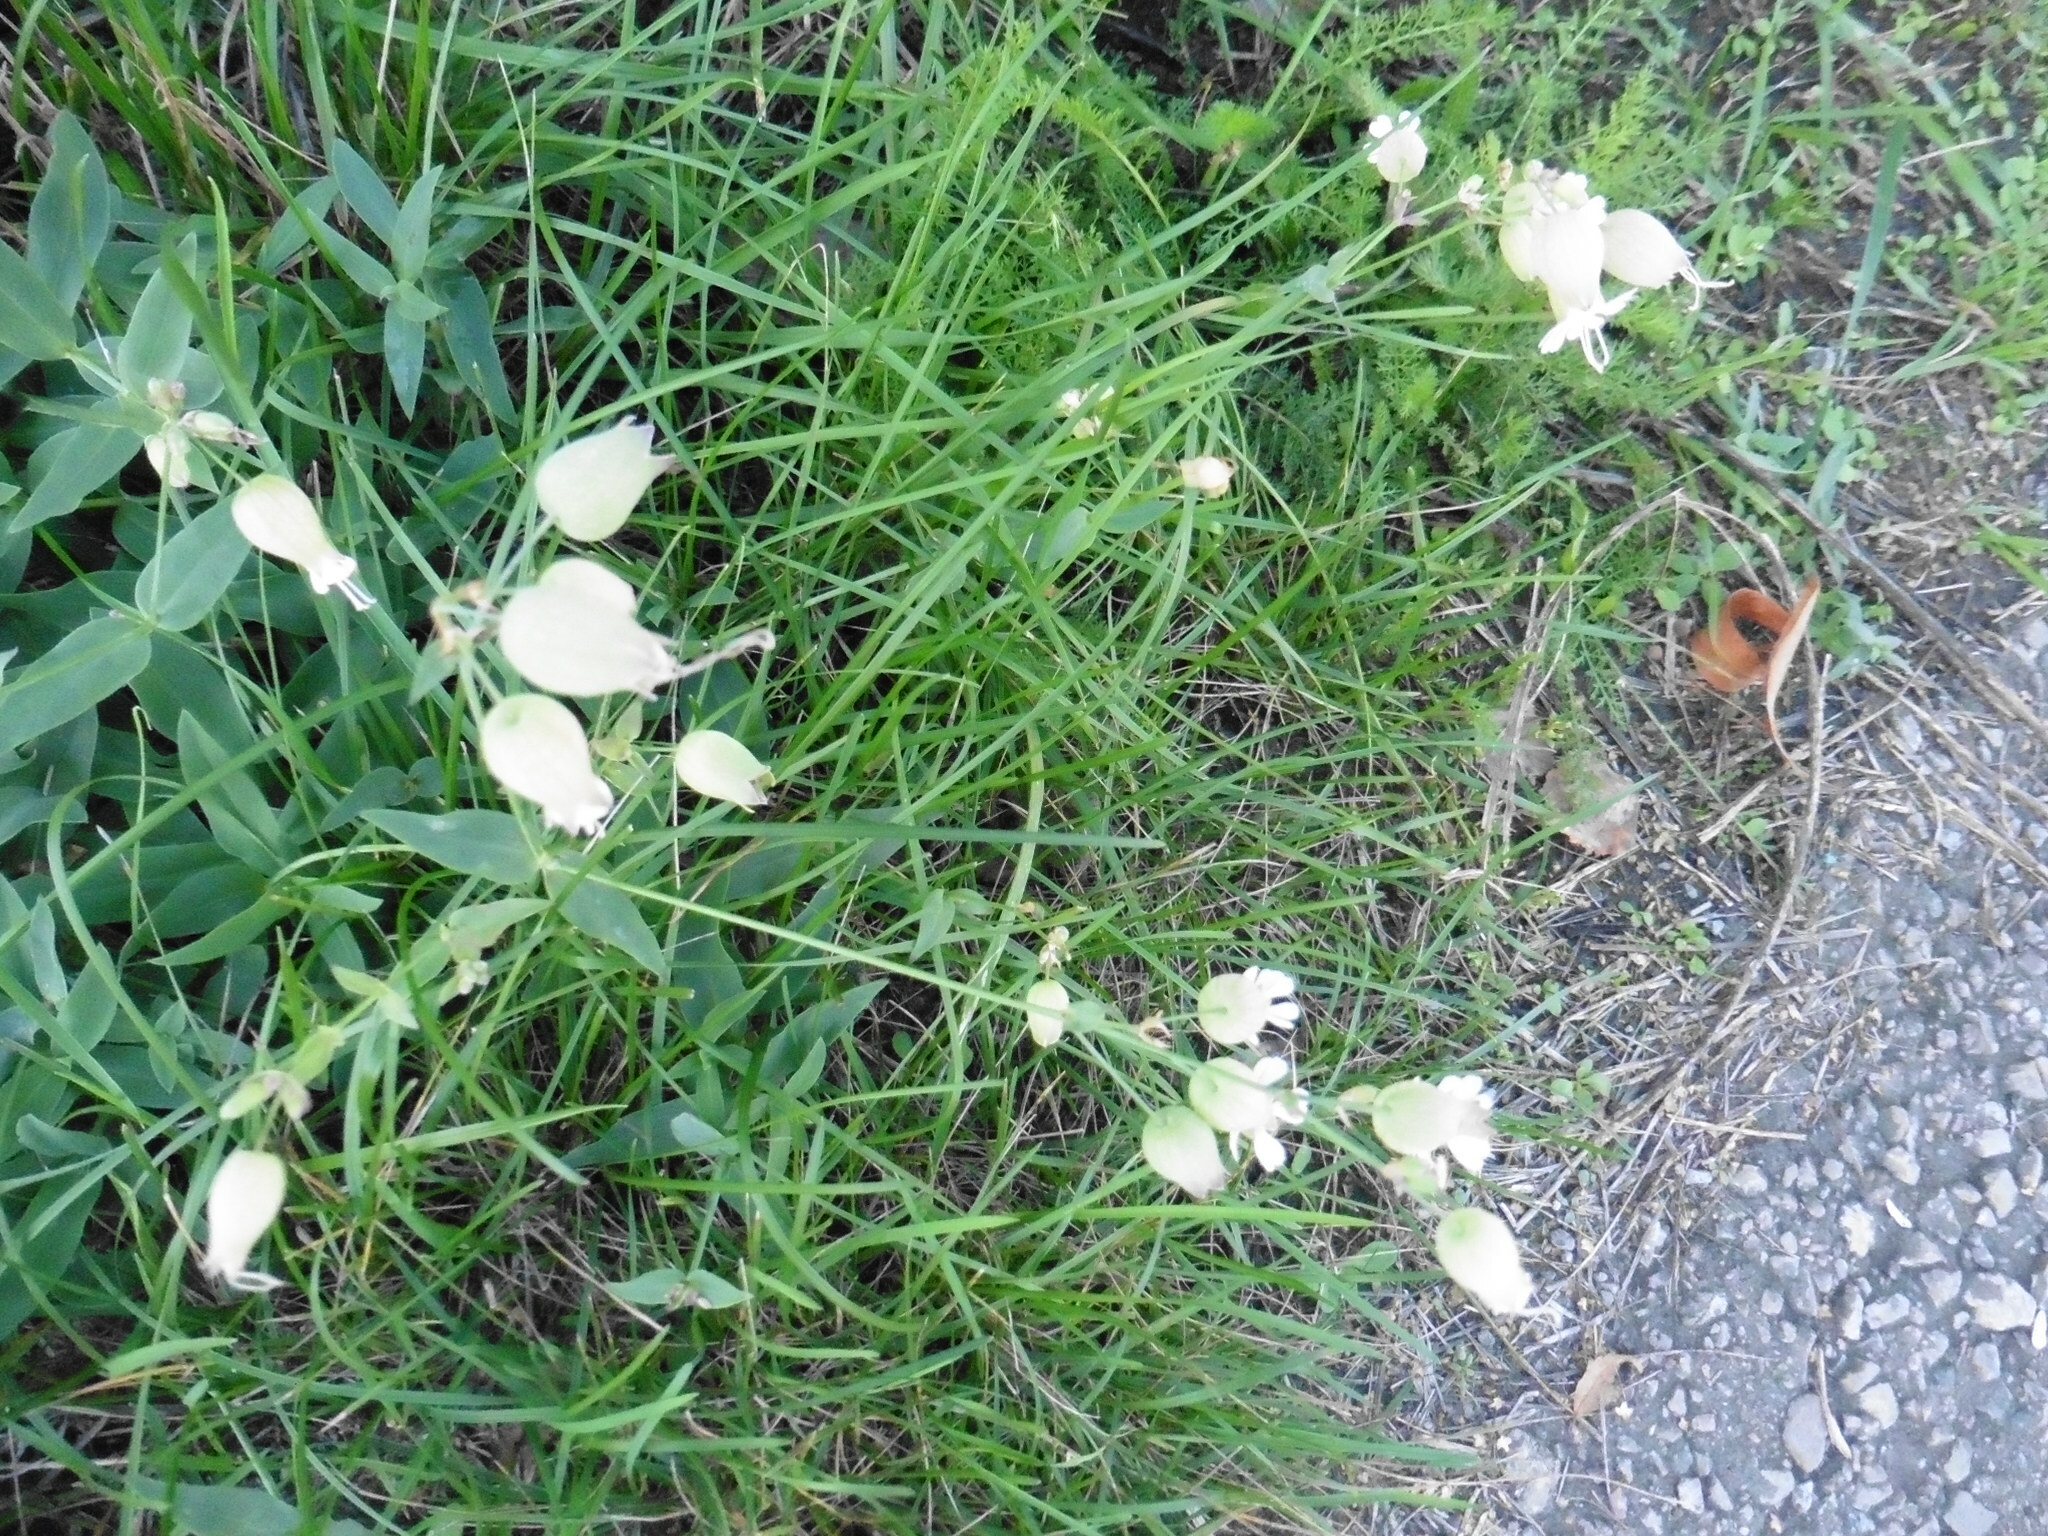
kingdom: Plantae
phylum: Tracheophyta
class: Magnoliopsida
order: Caryophyllales
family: Caryophyllaceae
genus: Silene
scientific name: Silene vulgaris
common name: Bladder campion
